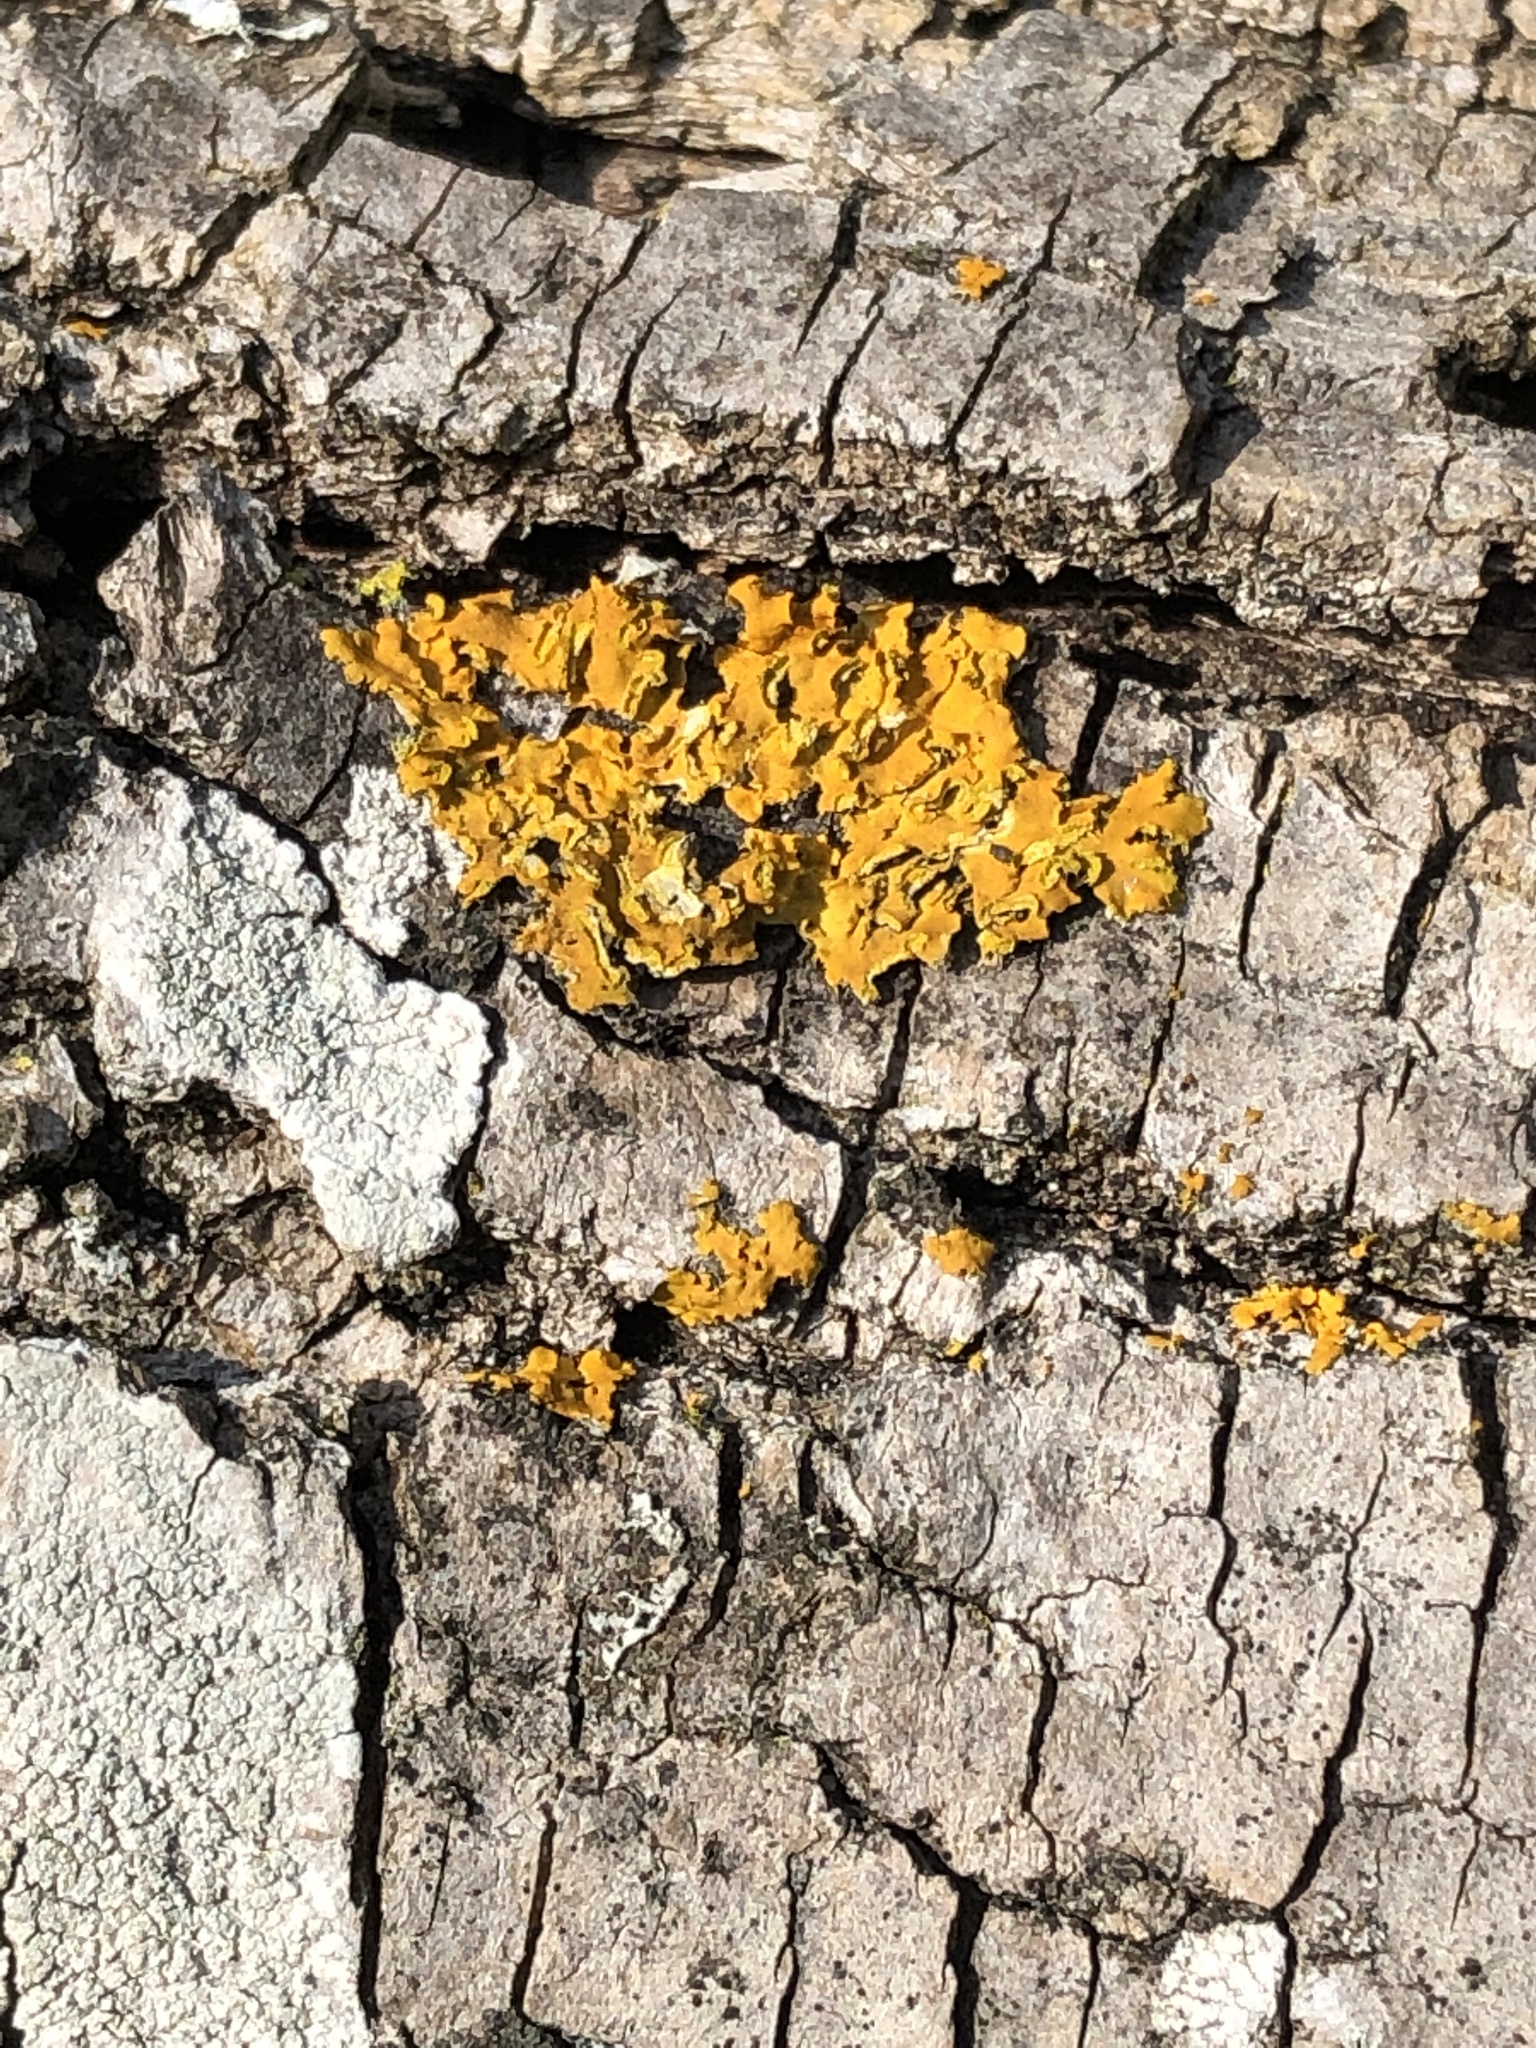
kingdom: Fungi
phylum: Ascomycota
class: Lecanoromycetes
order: Teloschistales
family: Teloschistaceae
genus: Oxneria
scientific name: Oxneria fallax
